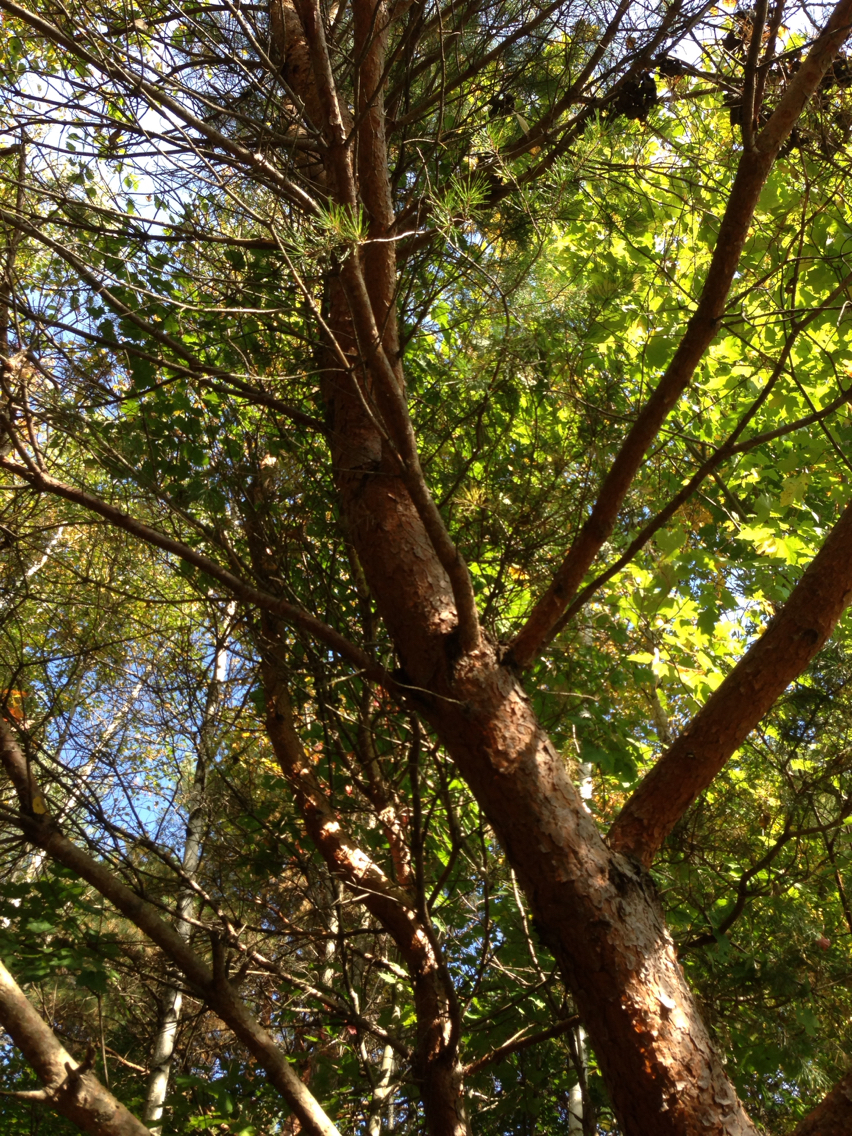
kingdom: Plantae
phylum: Tracheophyta
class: Pinopsida
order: Pinales
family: Pinaceae
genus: Pinus
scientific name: Pinus sylvestris
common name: Scots pine
